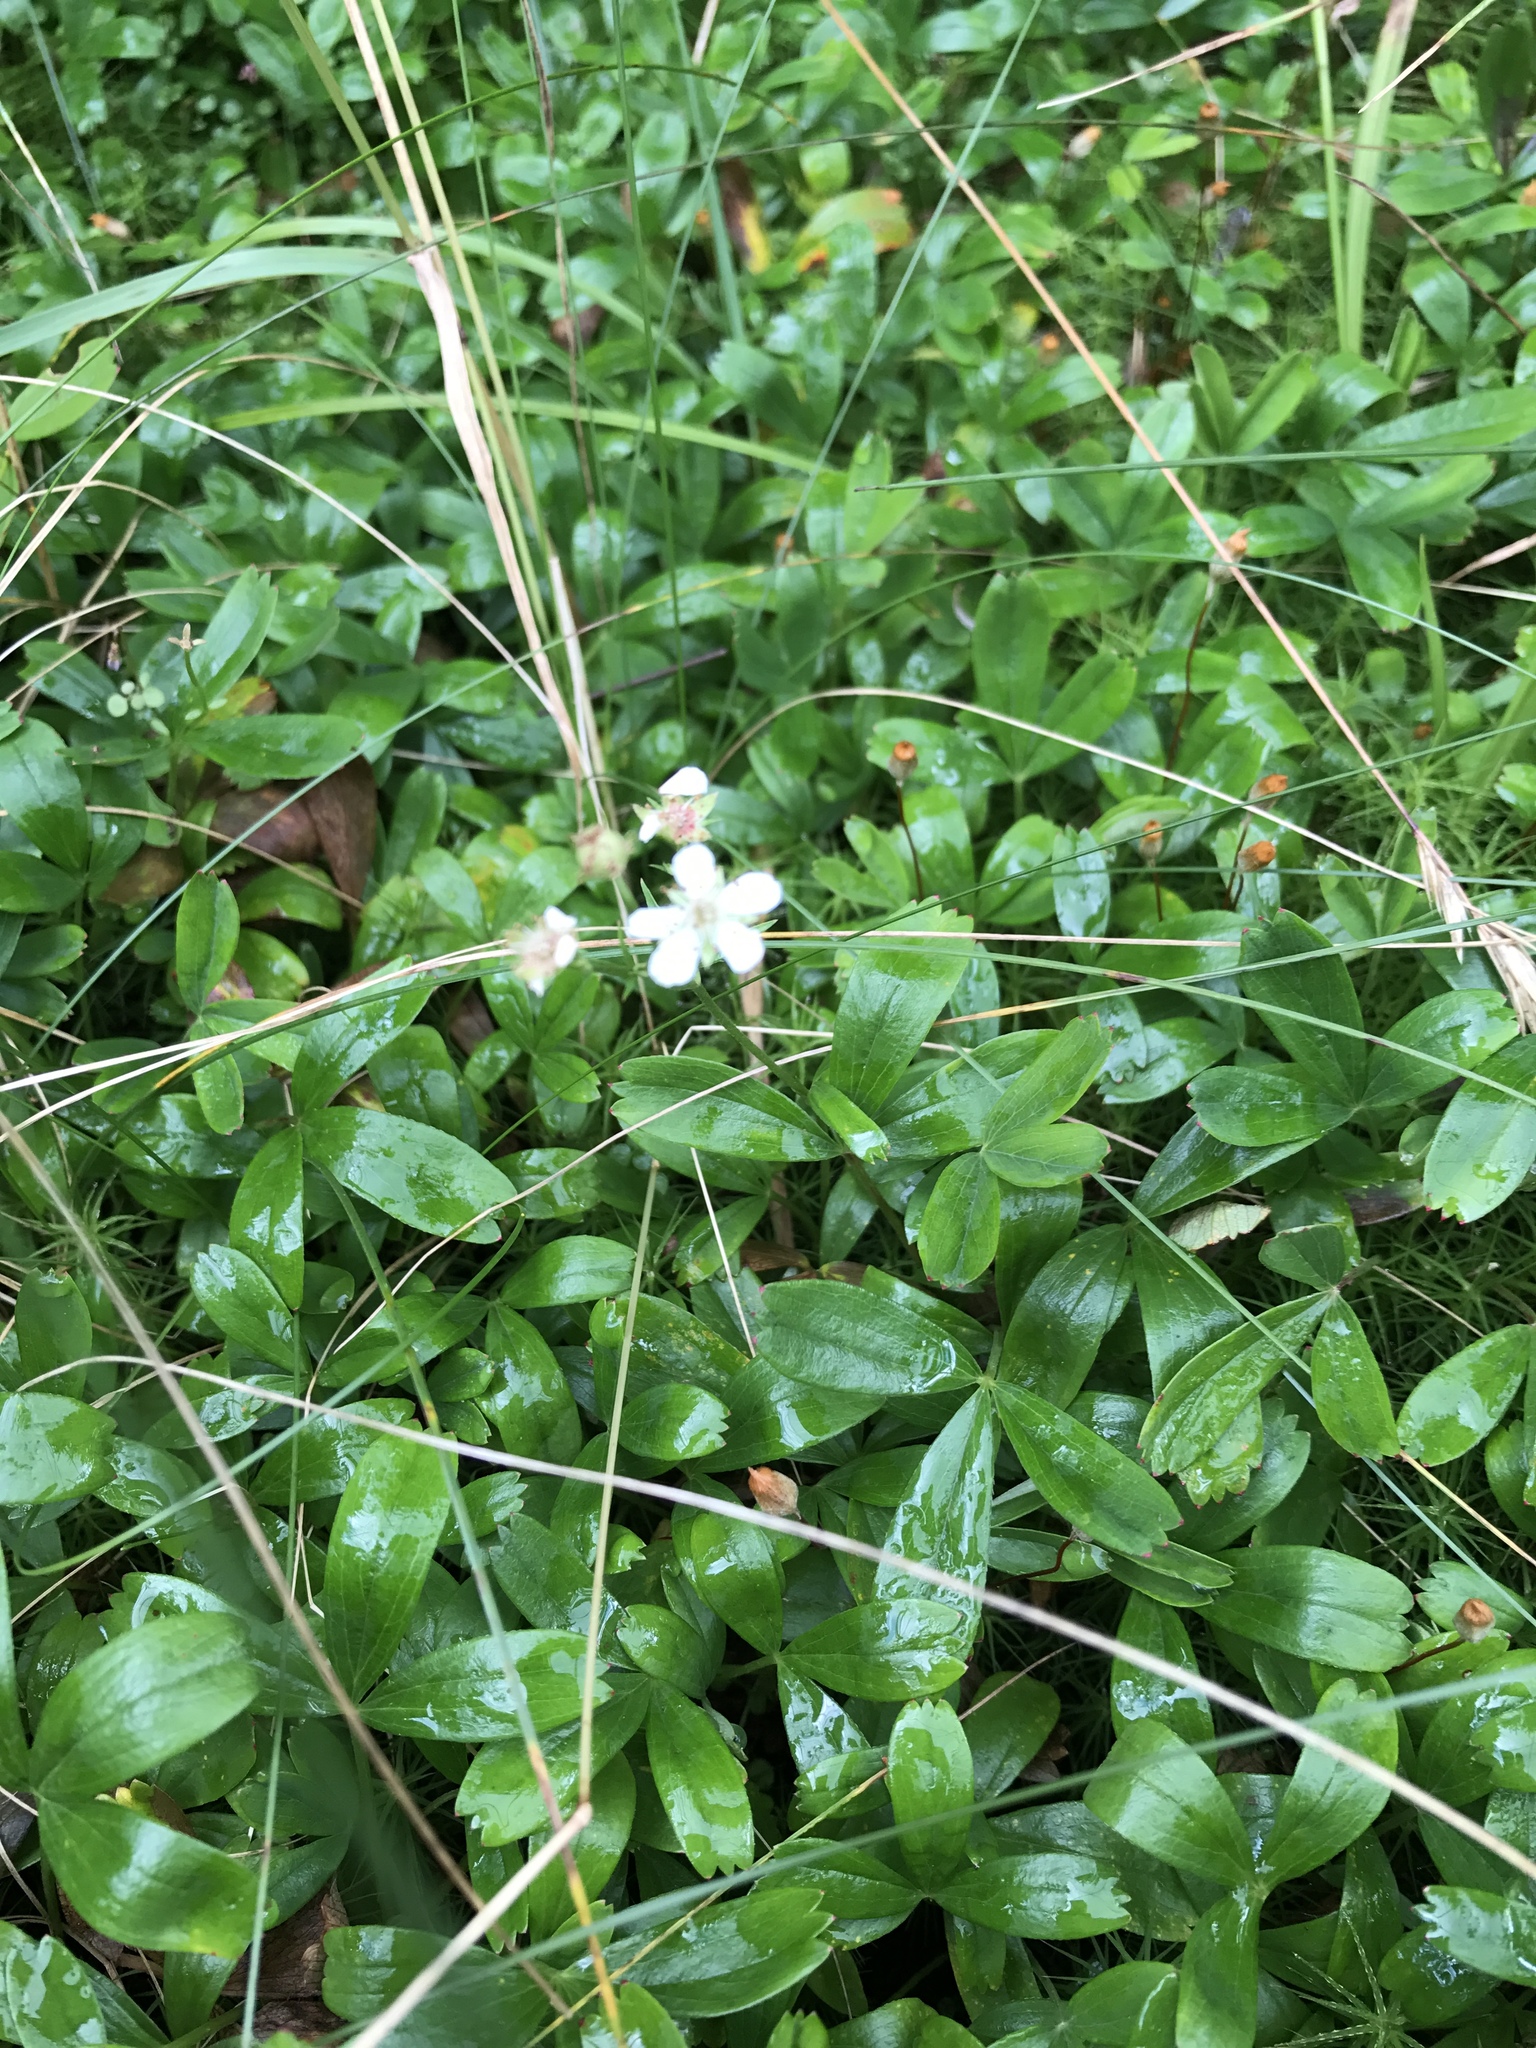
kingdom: Plantae
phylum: Tracheophyta
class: Magnoliopsida
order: Rosales
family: Rosaceae
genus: Sibbaldia
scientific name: Sibbaldia tridentata
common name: Three-toothed cinquefoil
